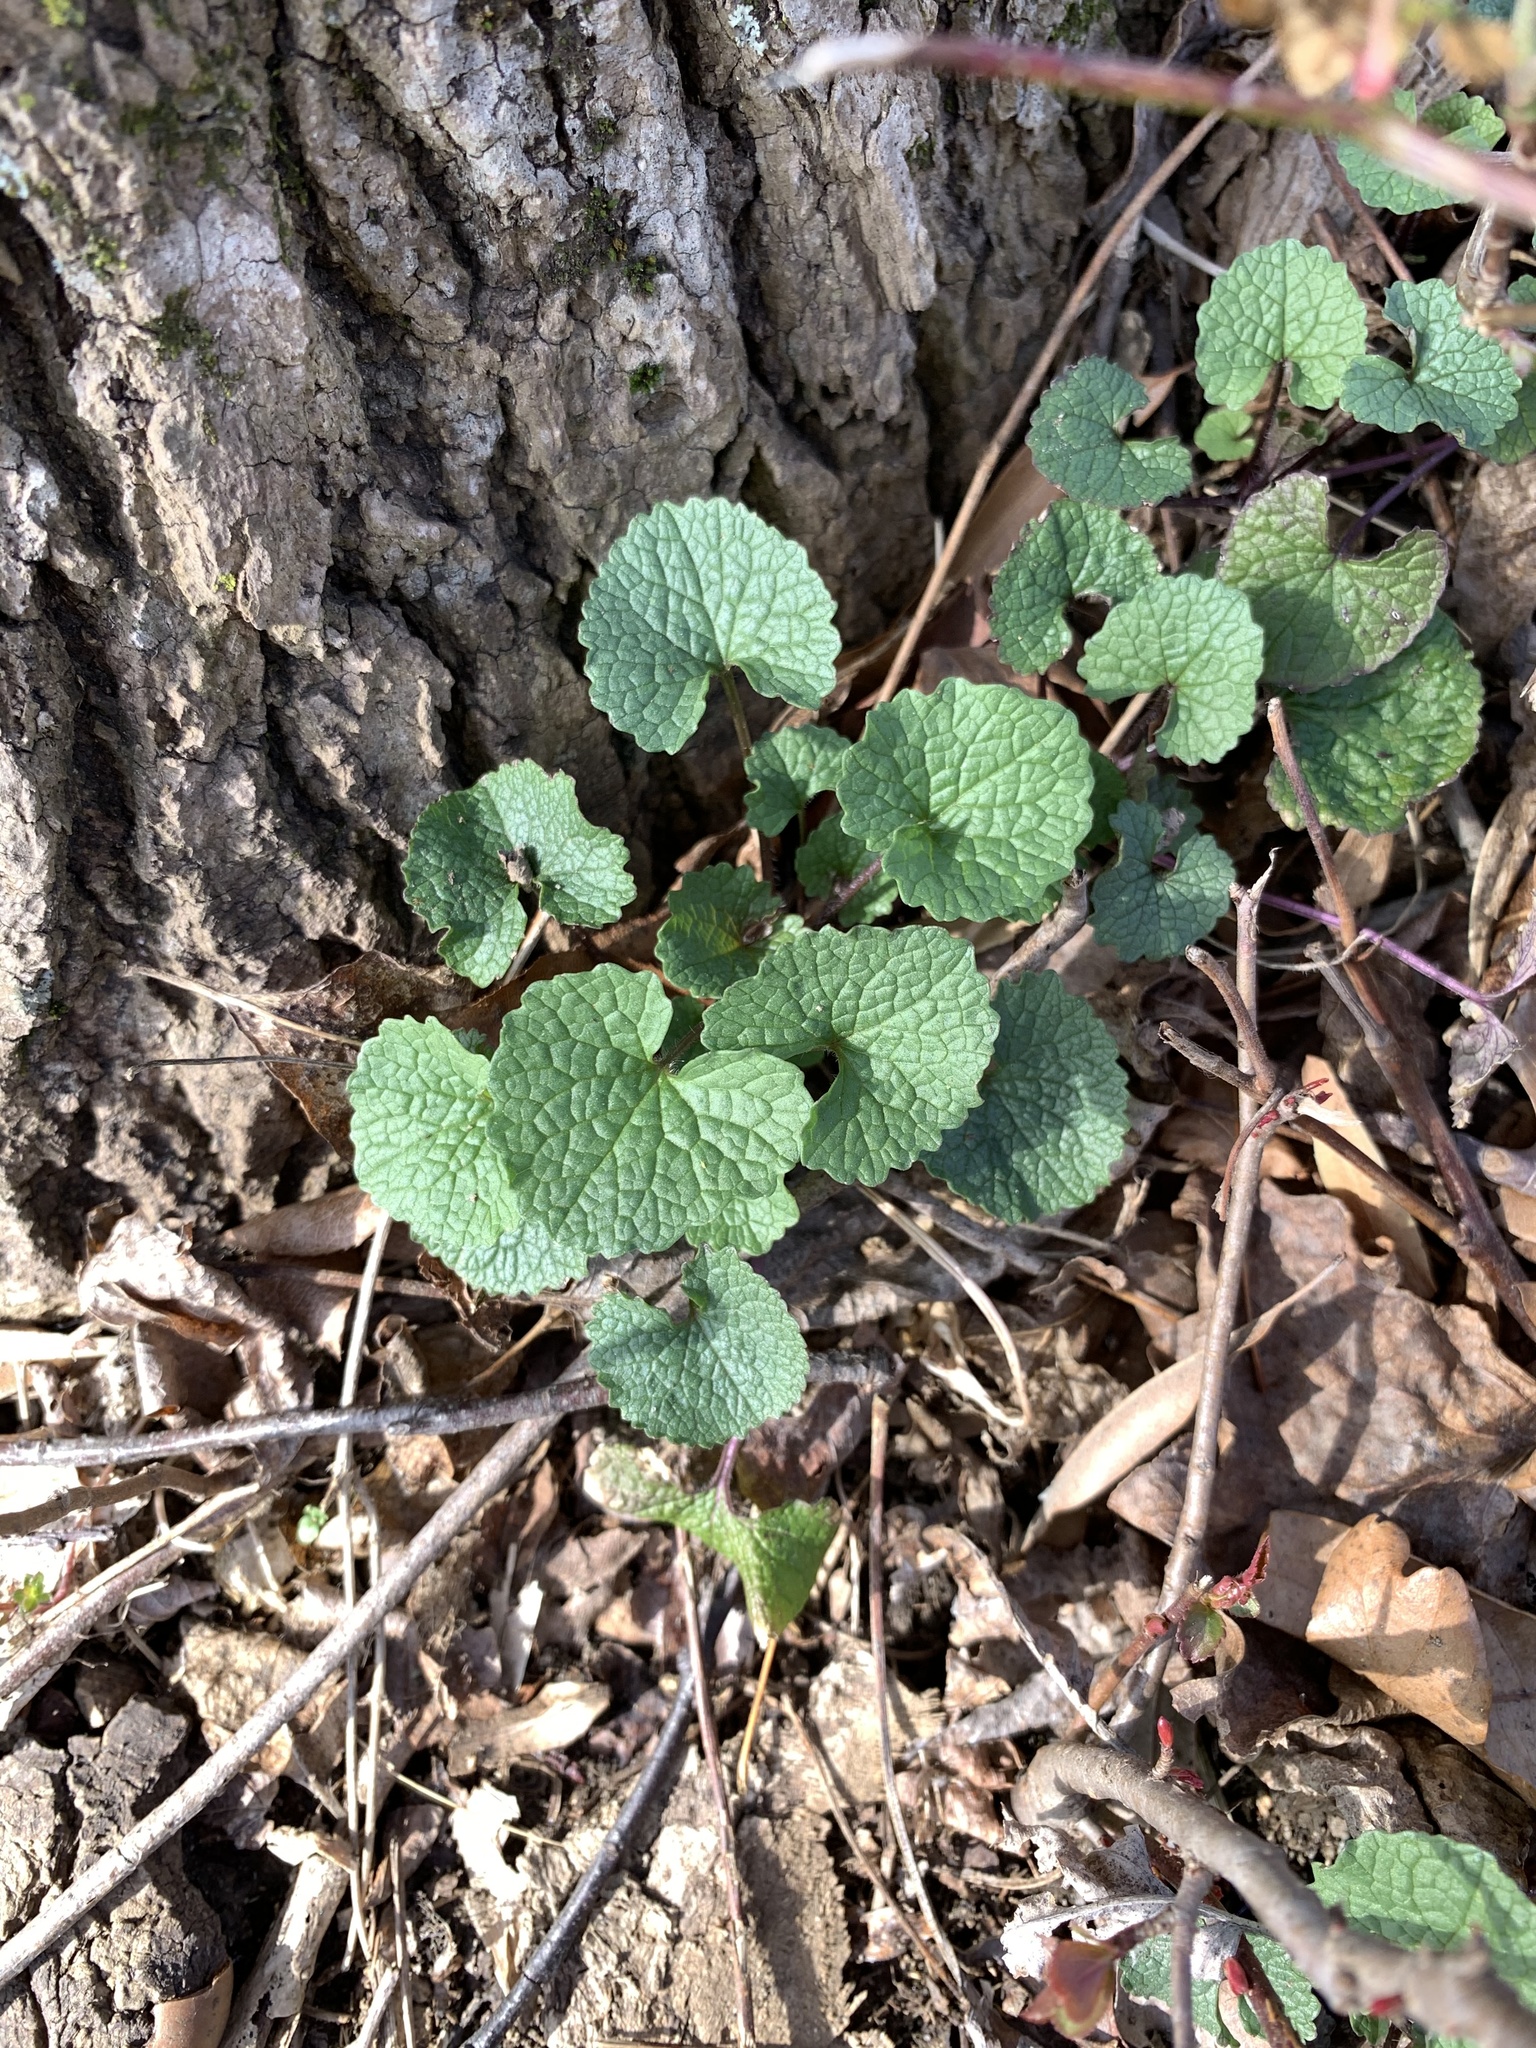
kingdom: Plantae
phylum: Tracheophyta
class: Magnoliopsida
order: Brassicales
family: Brassicaceae
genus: Alliaria
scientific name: Alliaria petiolata
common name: Garlic mustard
